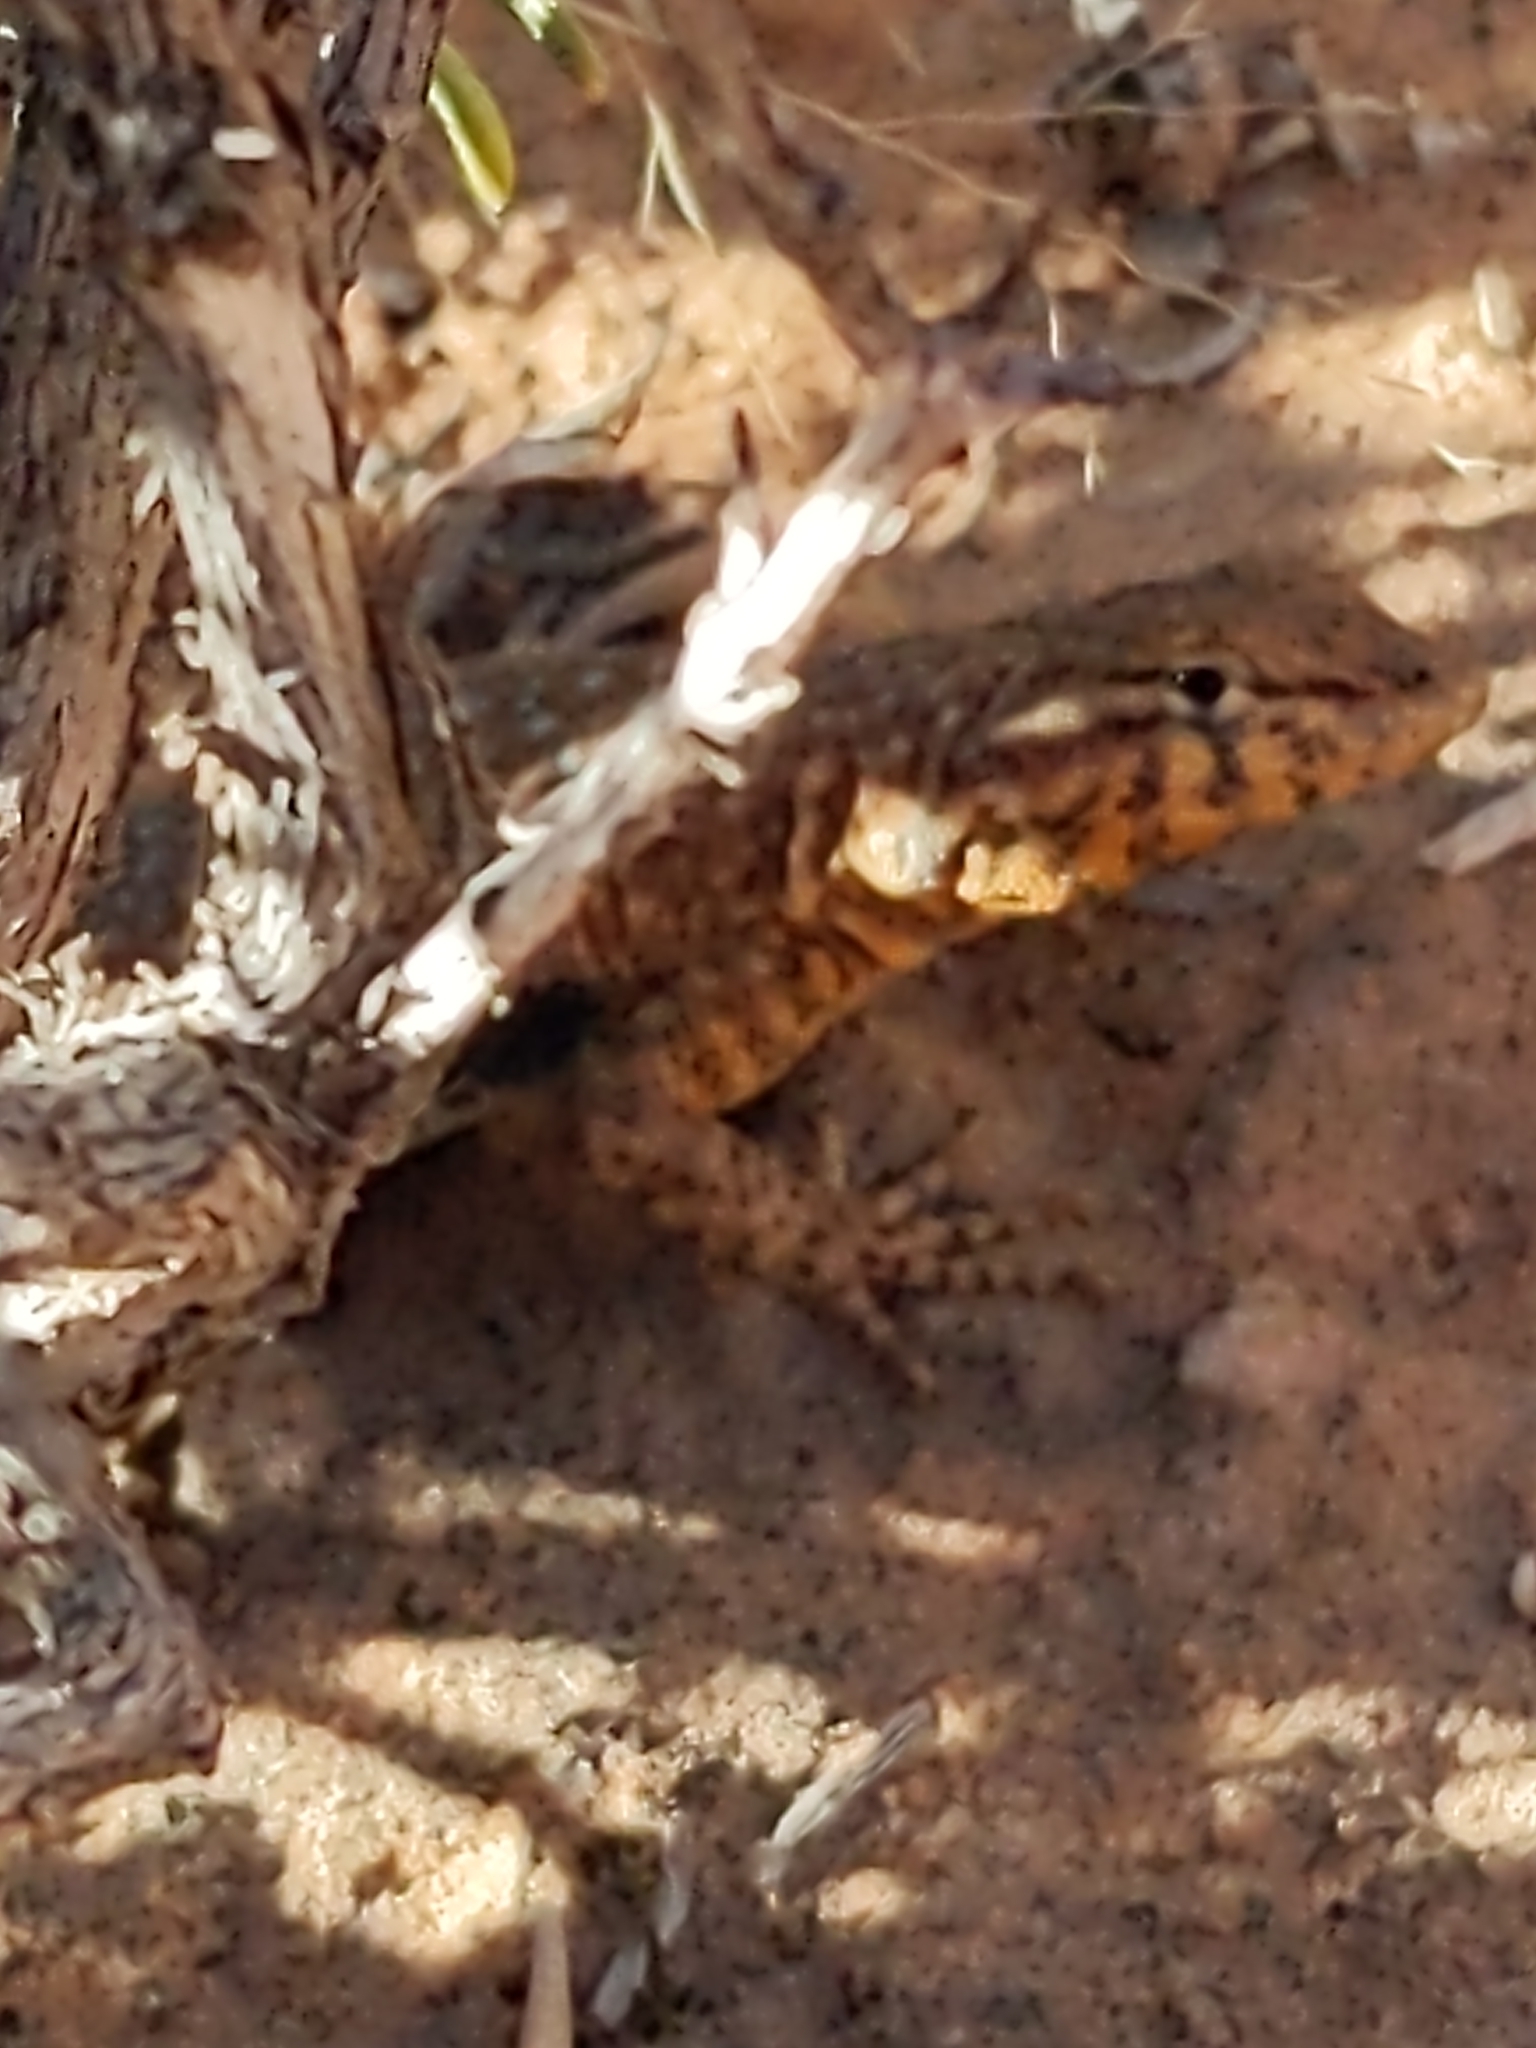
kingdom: Animalia
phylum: Chordata
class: Squamata
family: Phrynosomatidae
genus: Uta
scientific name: Uta stansburiana
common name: Side-blotched lizard
